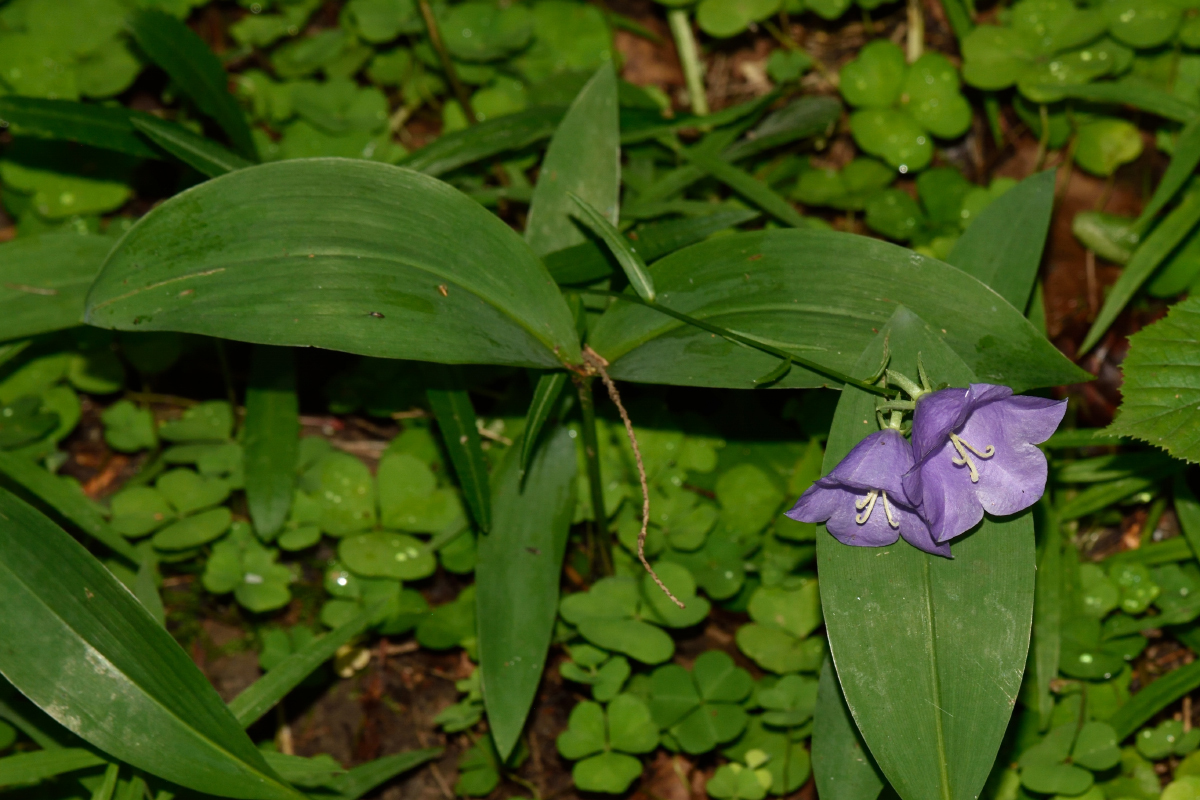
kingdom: Plantae
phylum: Tracheophyta
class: Liliopsida
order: Asparagales
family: Asparagaceae
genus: Convallaria
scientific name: Convallaria majalis
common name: Lily-of-the-valley
